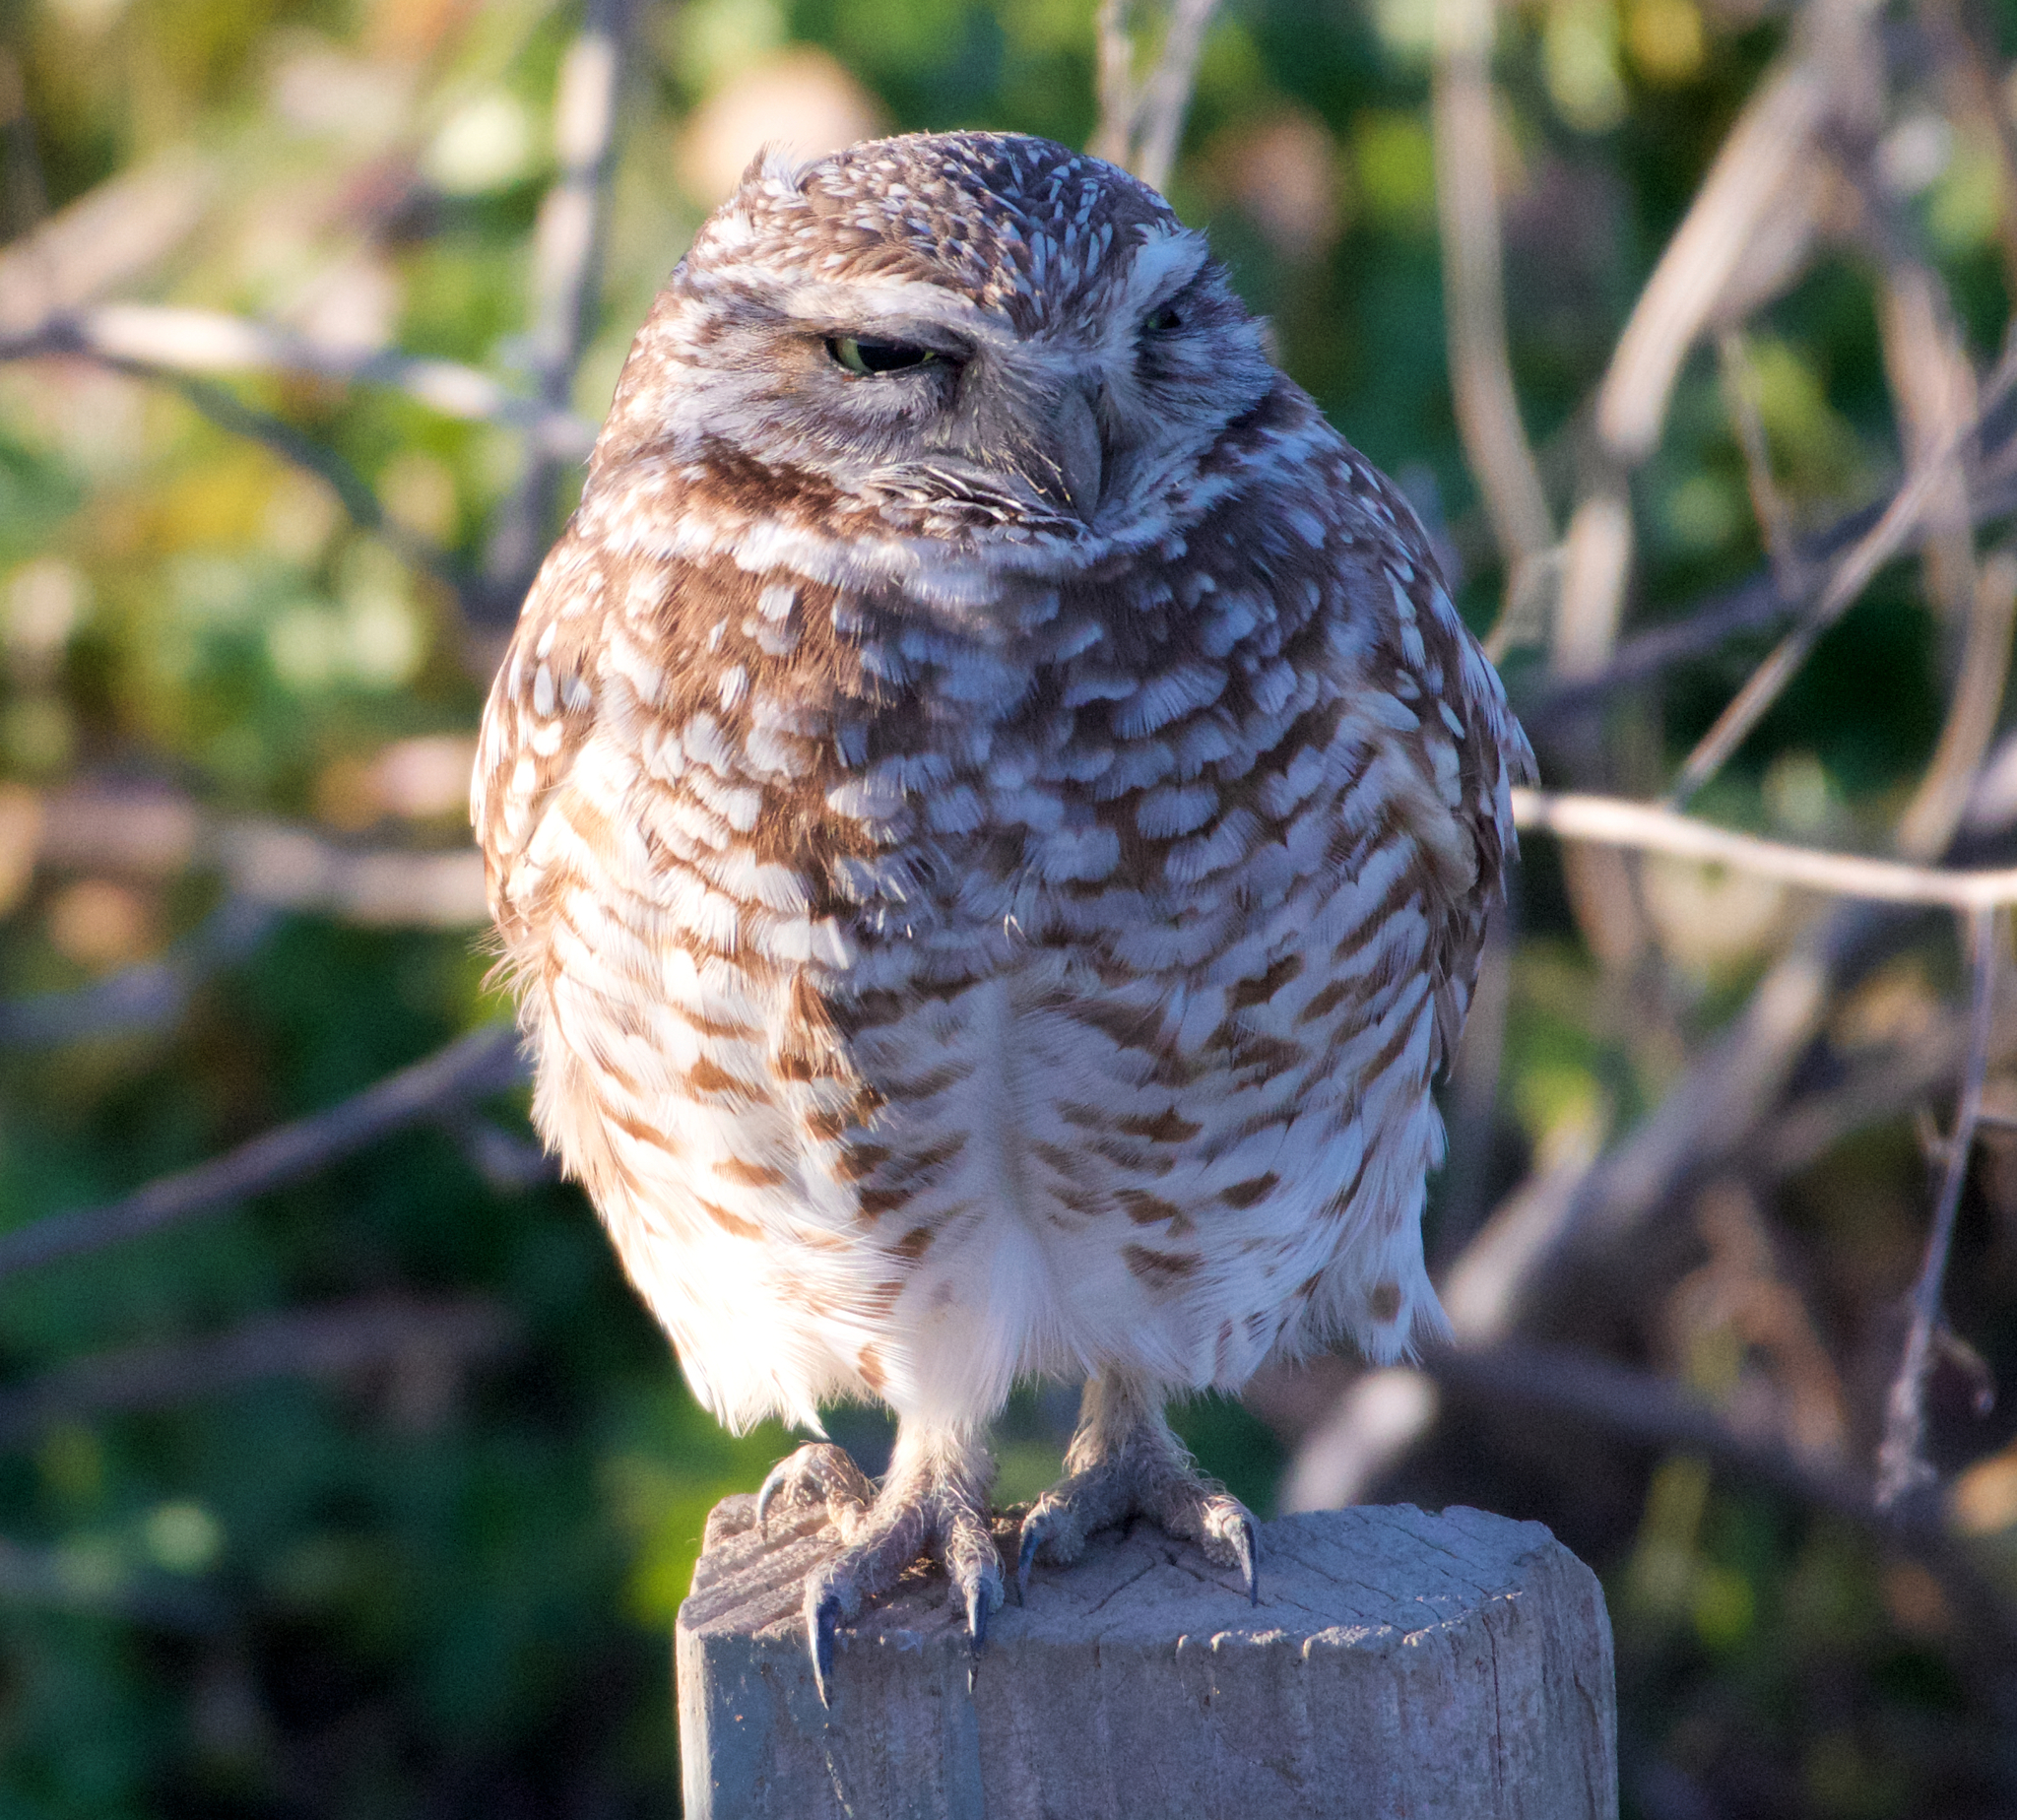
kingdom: Animalia
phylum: Chordata
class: Aves
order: Strigiformes
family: Strigidae
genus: Athene
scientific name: Athene cunicularia
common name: Burrowing owl
